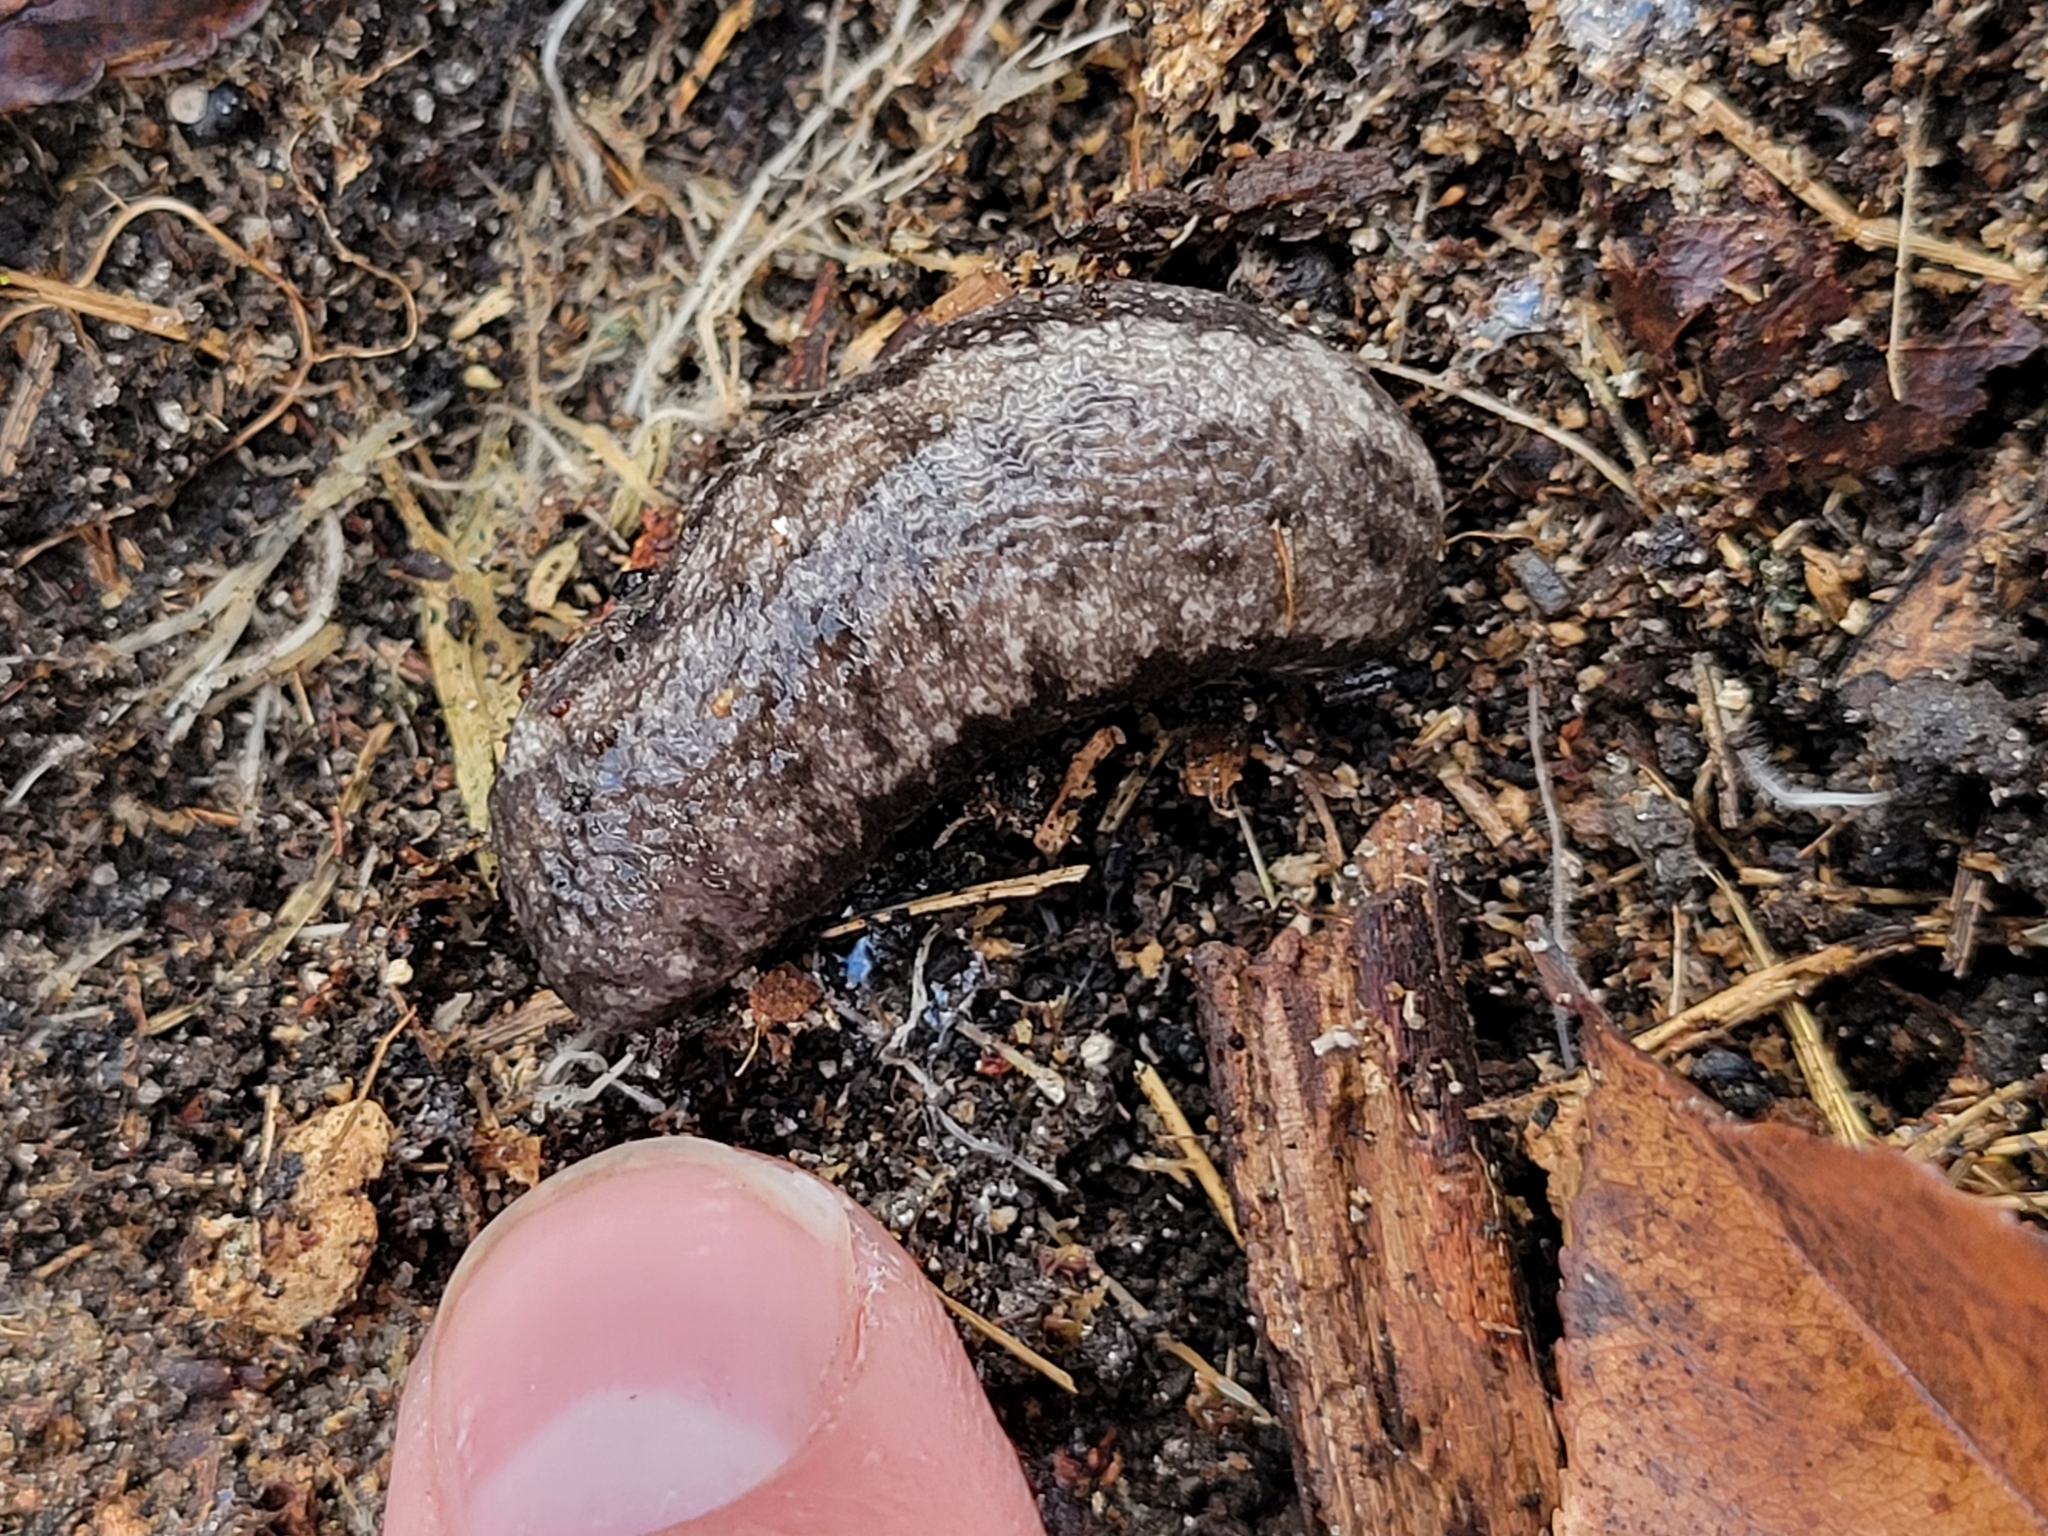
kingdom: Animalia
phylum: Mollusca
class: Gastropoda
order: Stylommatophora
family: Philomycidae
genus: Megapallifera
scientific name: Megapallifera mutabilis
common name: Changeable mantleslug
